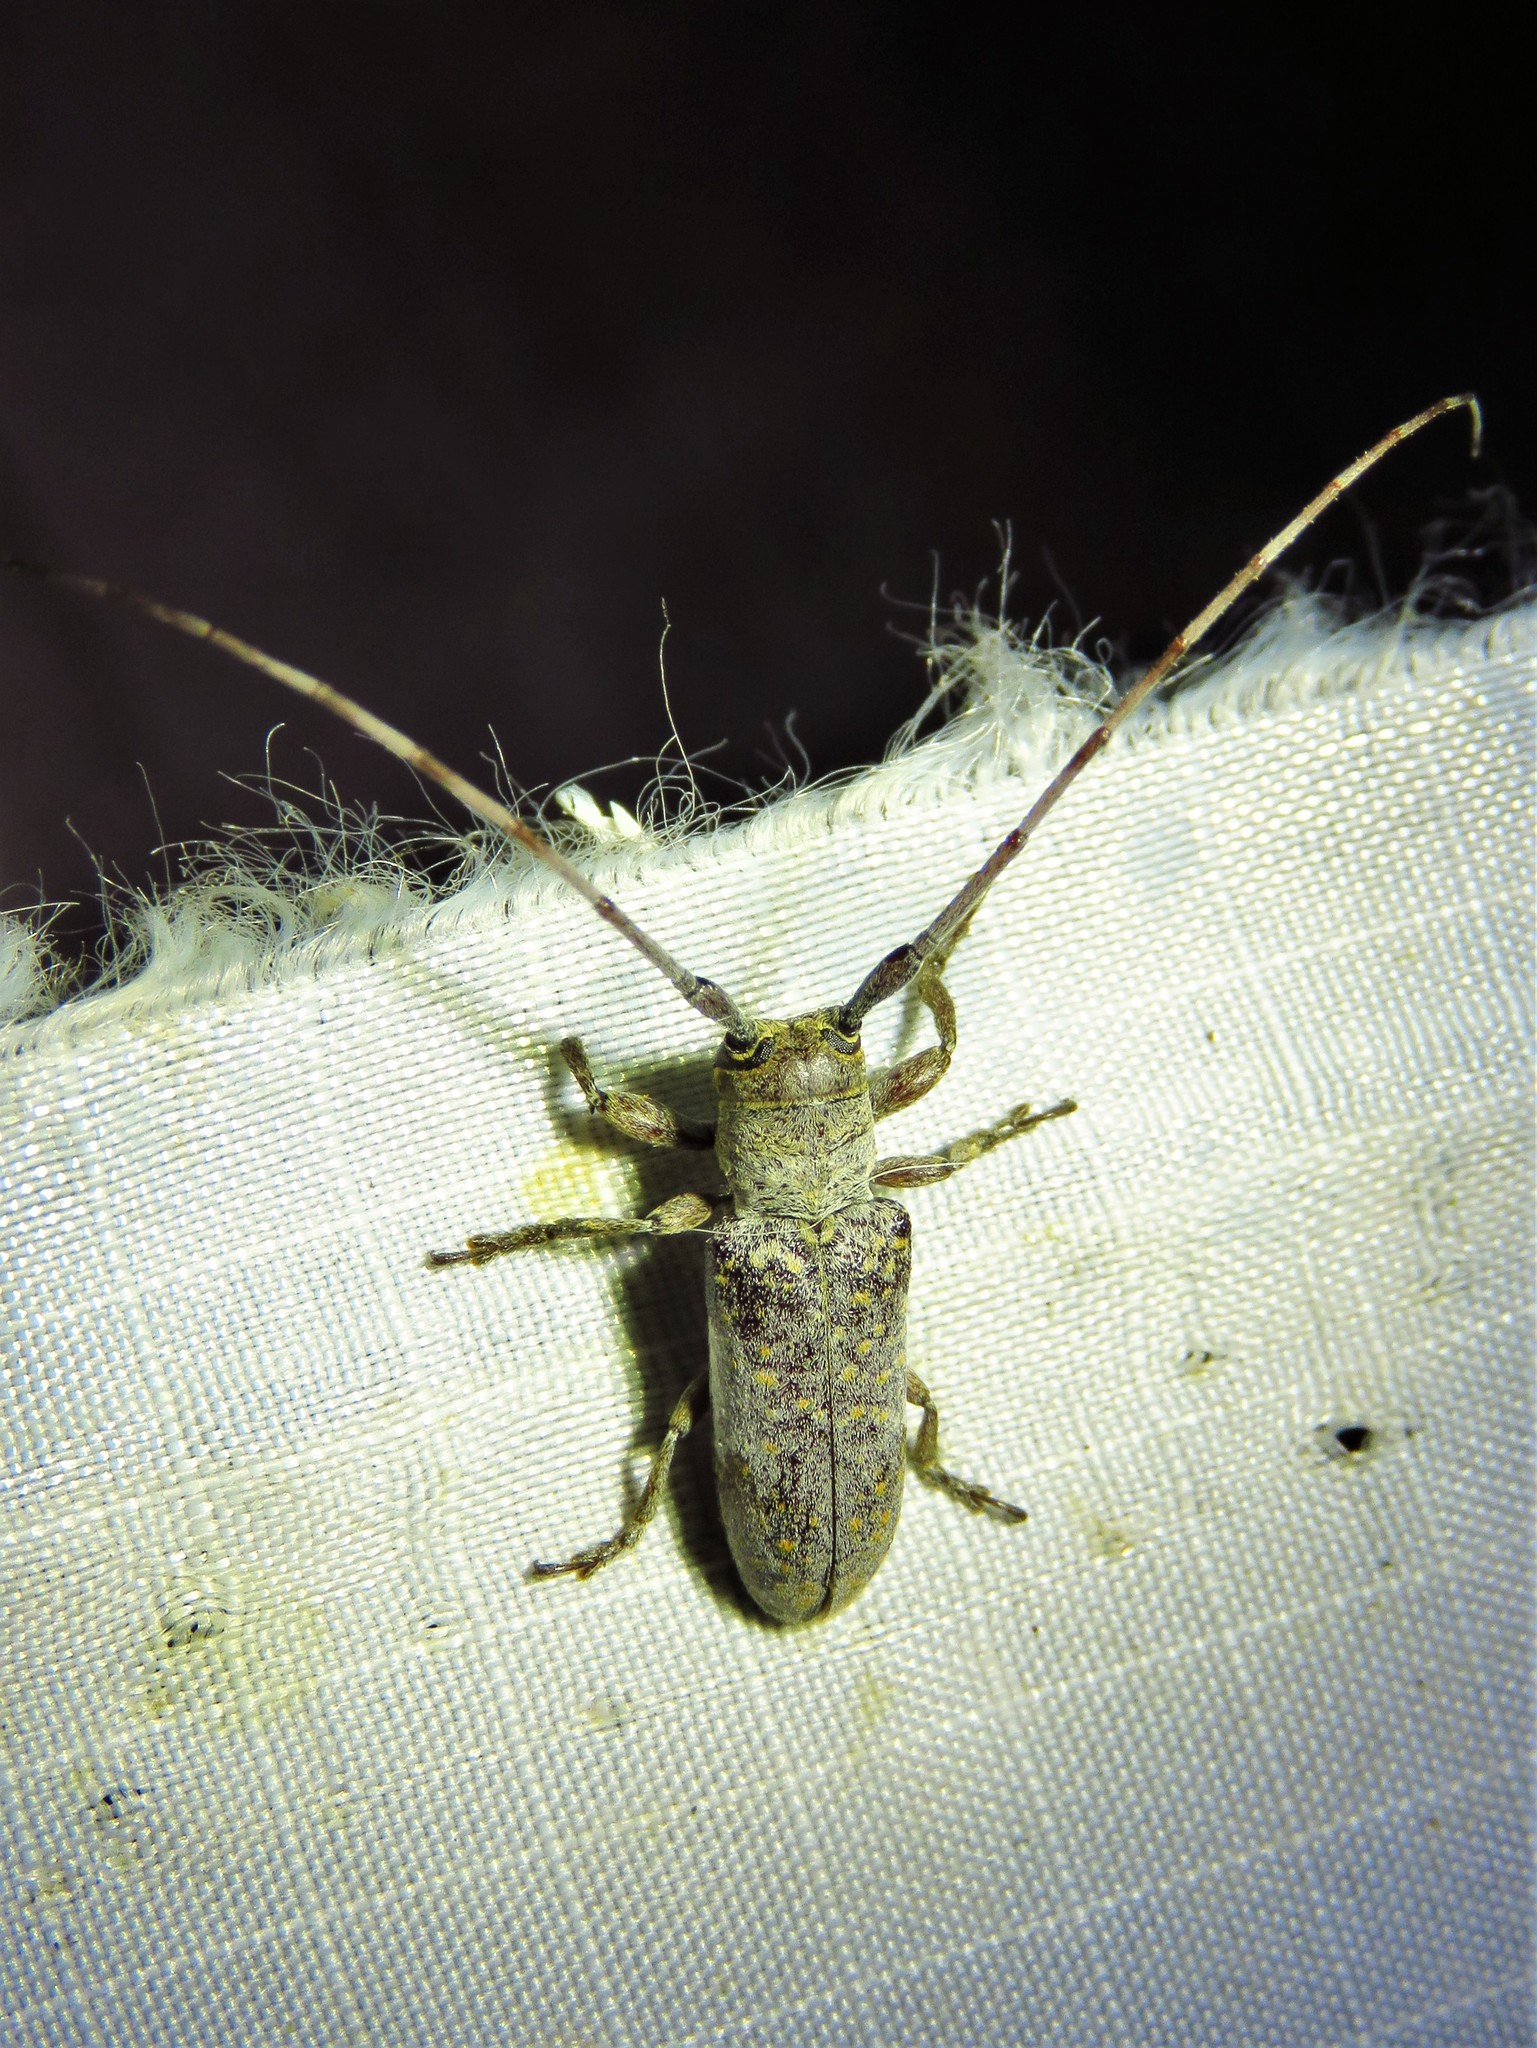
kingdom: Animalia
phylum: Arthropoda
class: Insecta
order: Coleoptera
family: Cerambycidae
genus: Oncideres
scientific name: Oncideres cingulata
